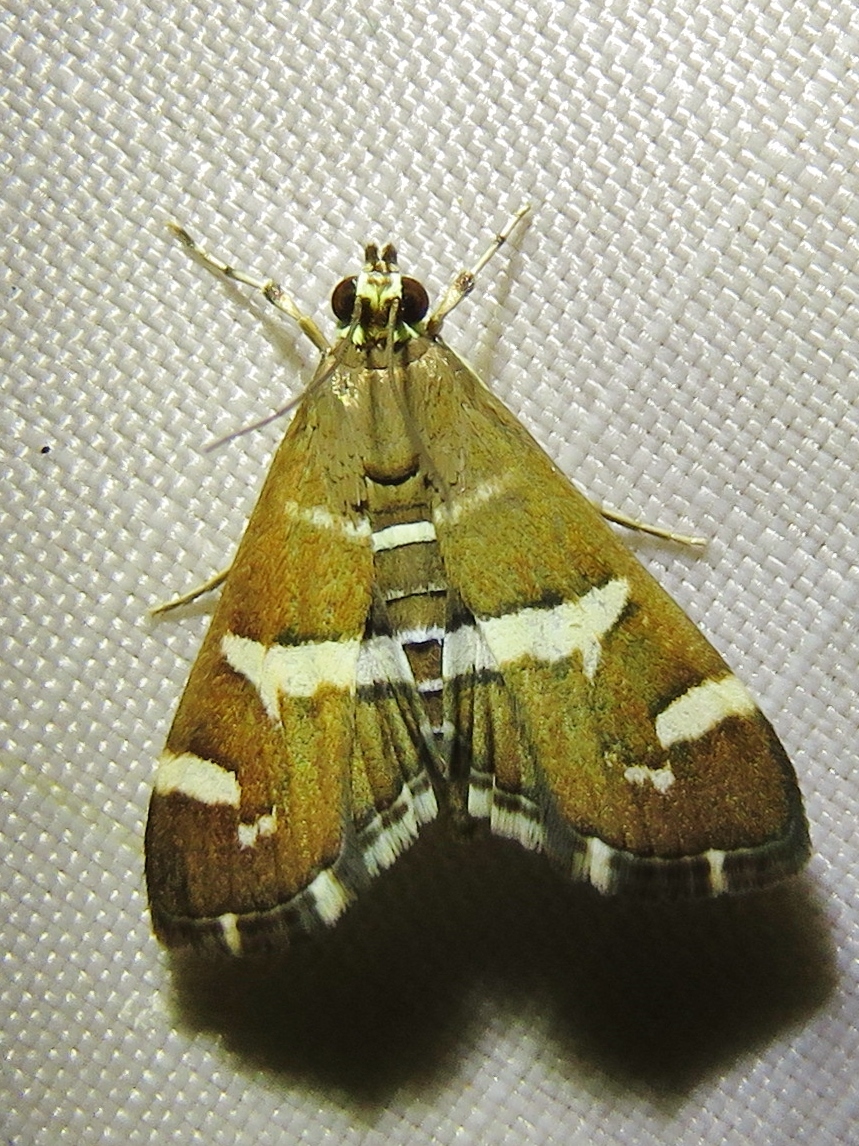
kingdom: Animalia
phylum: Arthropoda
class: Insecta
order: Lepidoptera
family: Crambidae
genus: Spoladea
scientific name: Spoladea recurvalis
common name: Beet webworm moth
